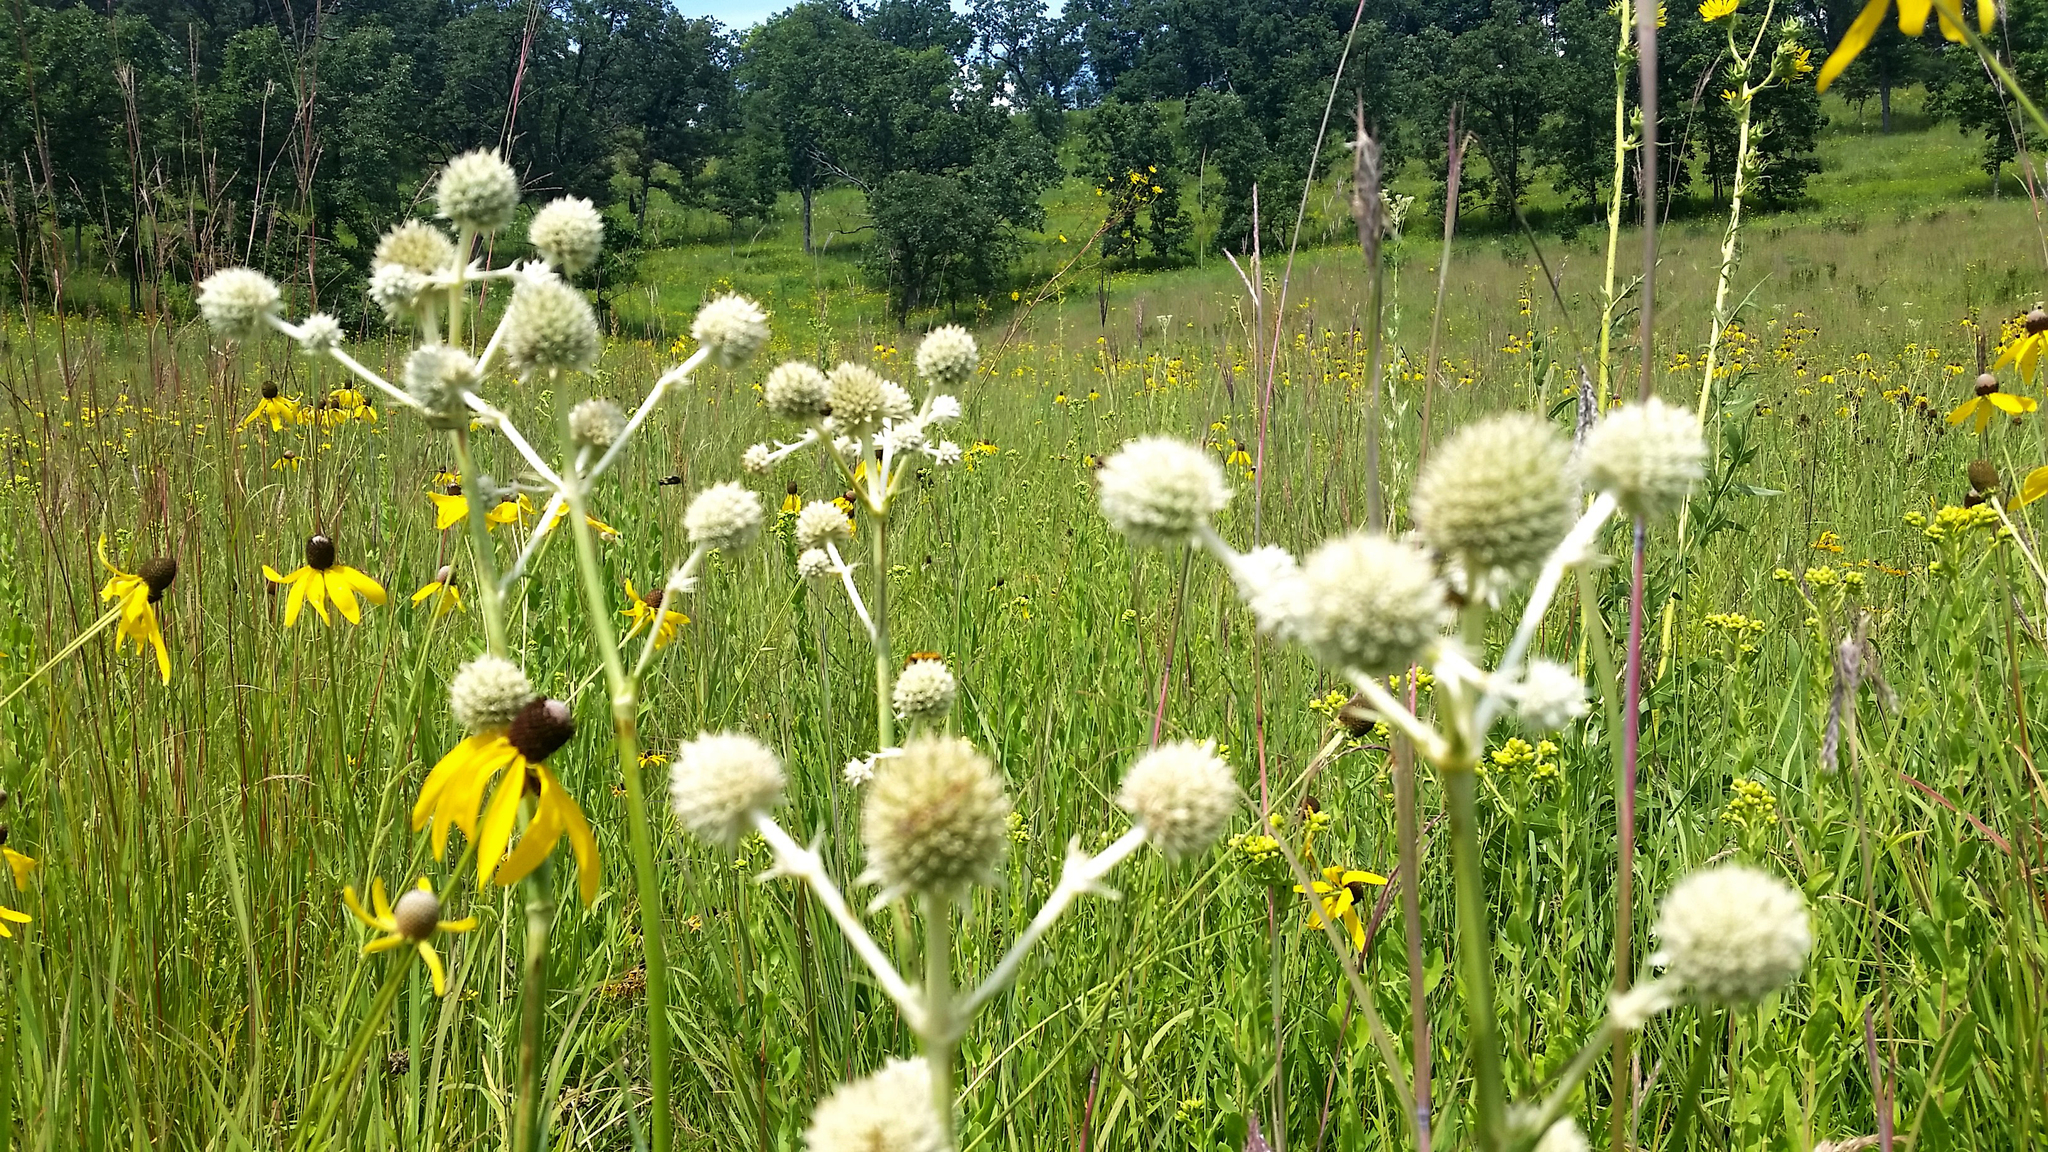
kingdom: Plantae
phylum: Tracheophyta
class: Magnoliopsida
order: Apiales
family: Apiaceae
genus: Eryngium
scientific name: Eryngium yuccifolium
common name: Button eryngo
